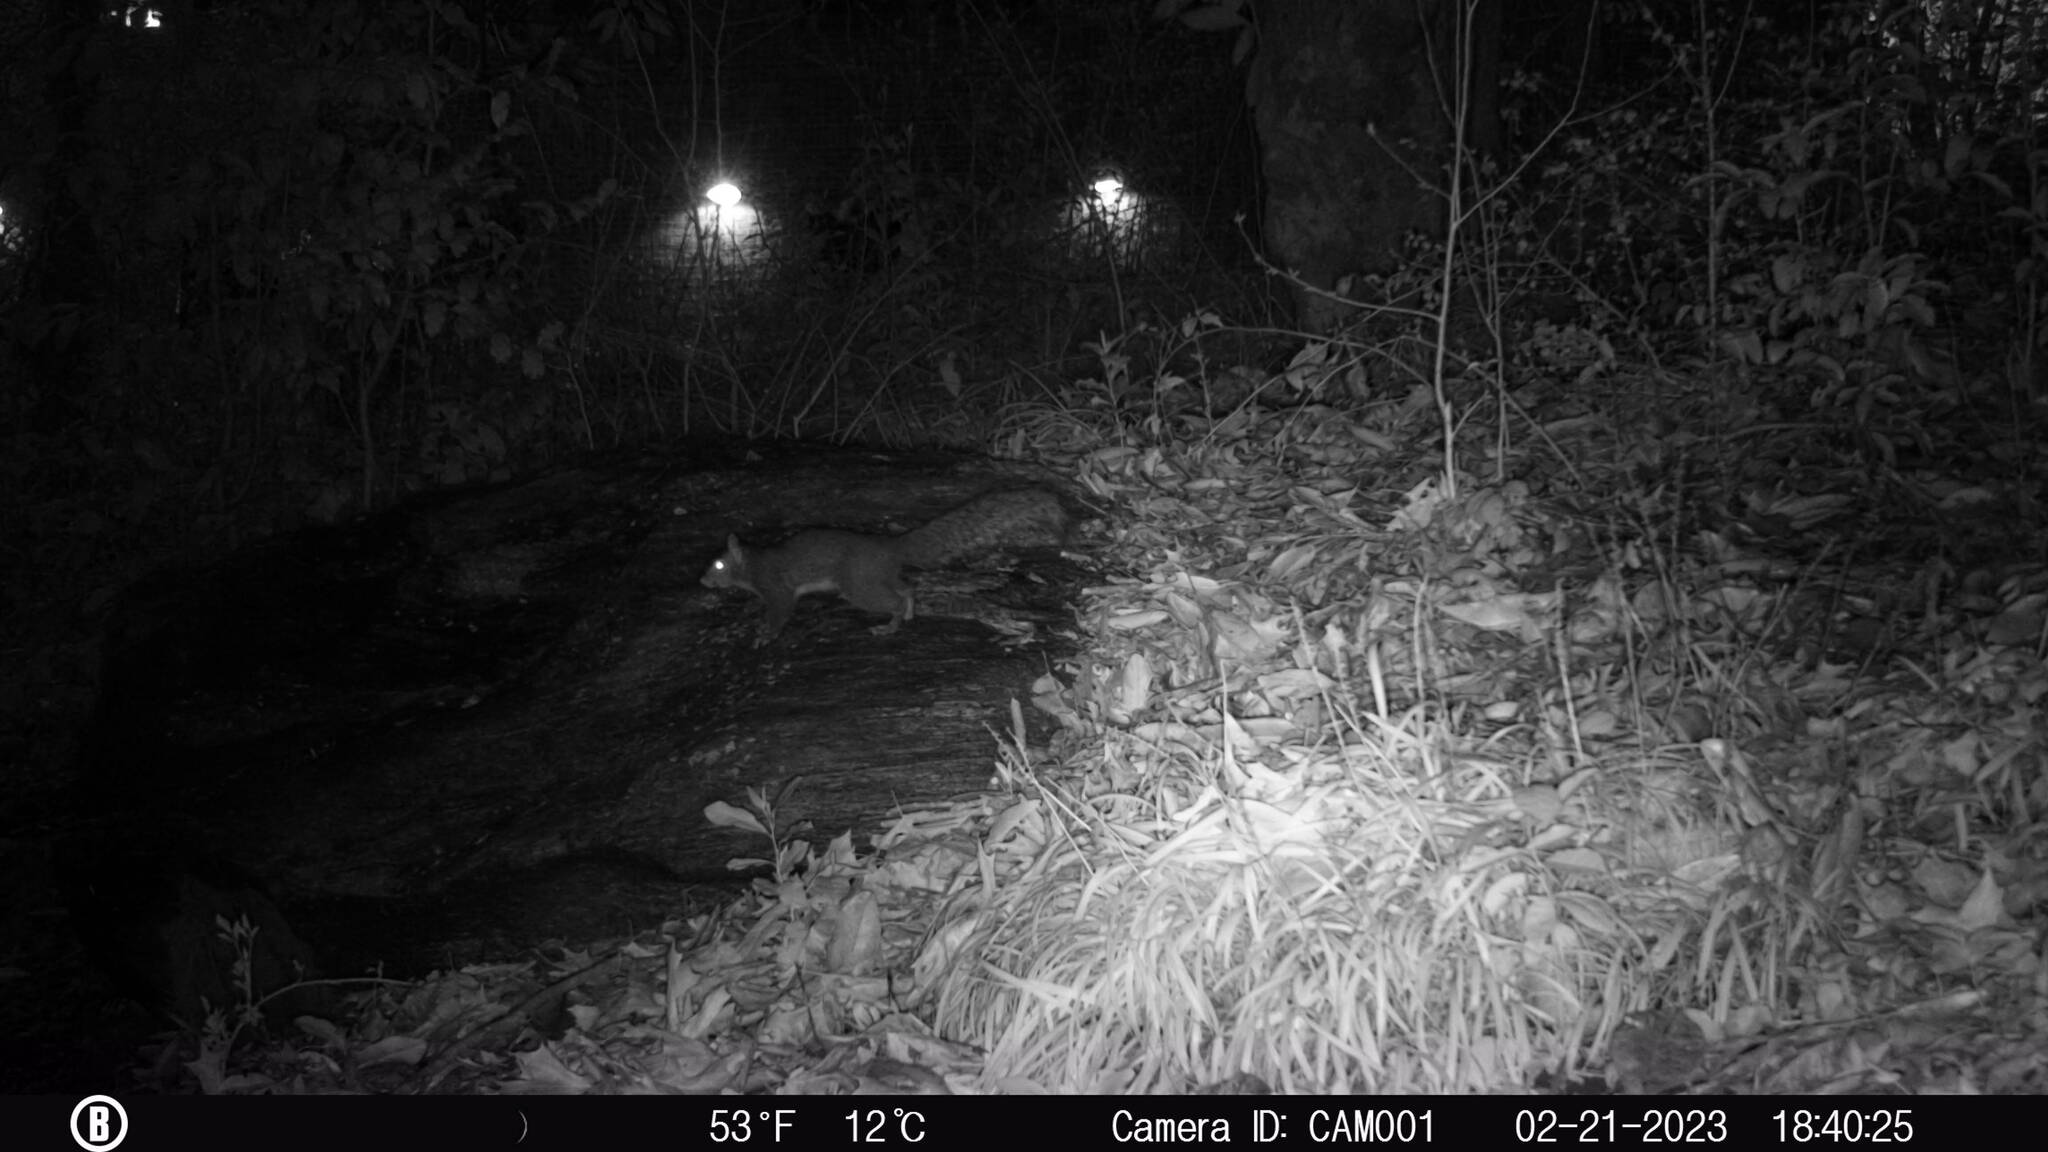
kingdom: Animalia
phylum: Chordata
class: Mammalia
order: Rodentia
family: Sciuridae
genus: Sciurus
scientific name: Sciurus carolinensis
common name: Eastern gray squirrel
